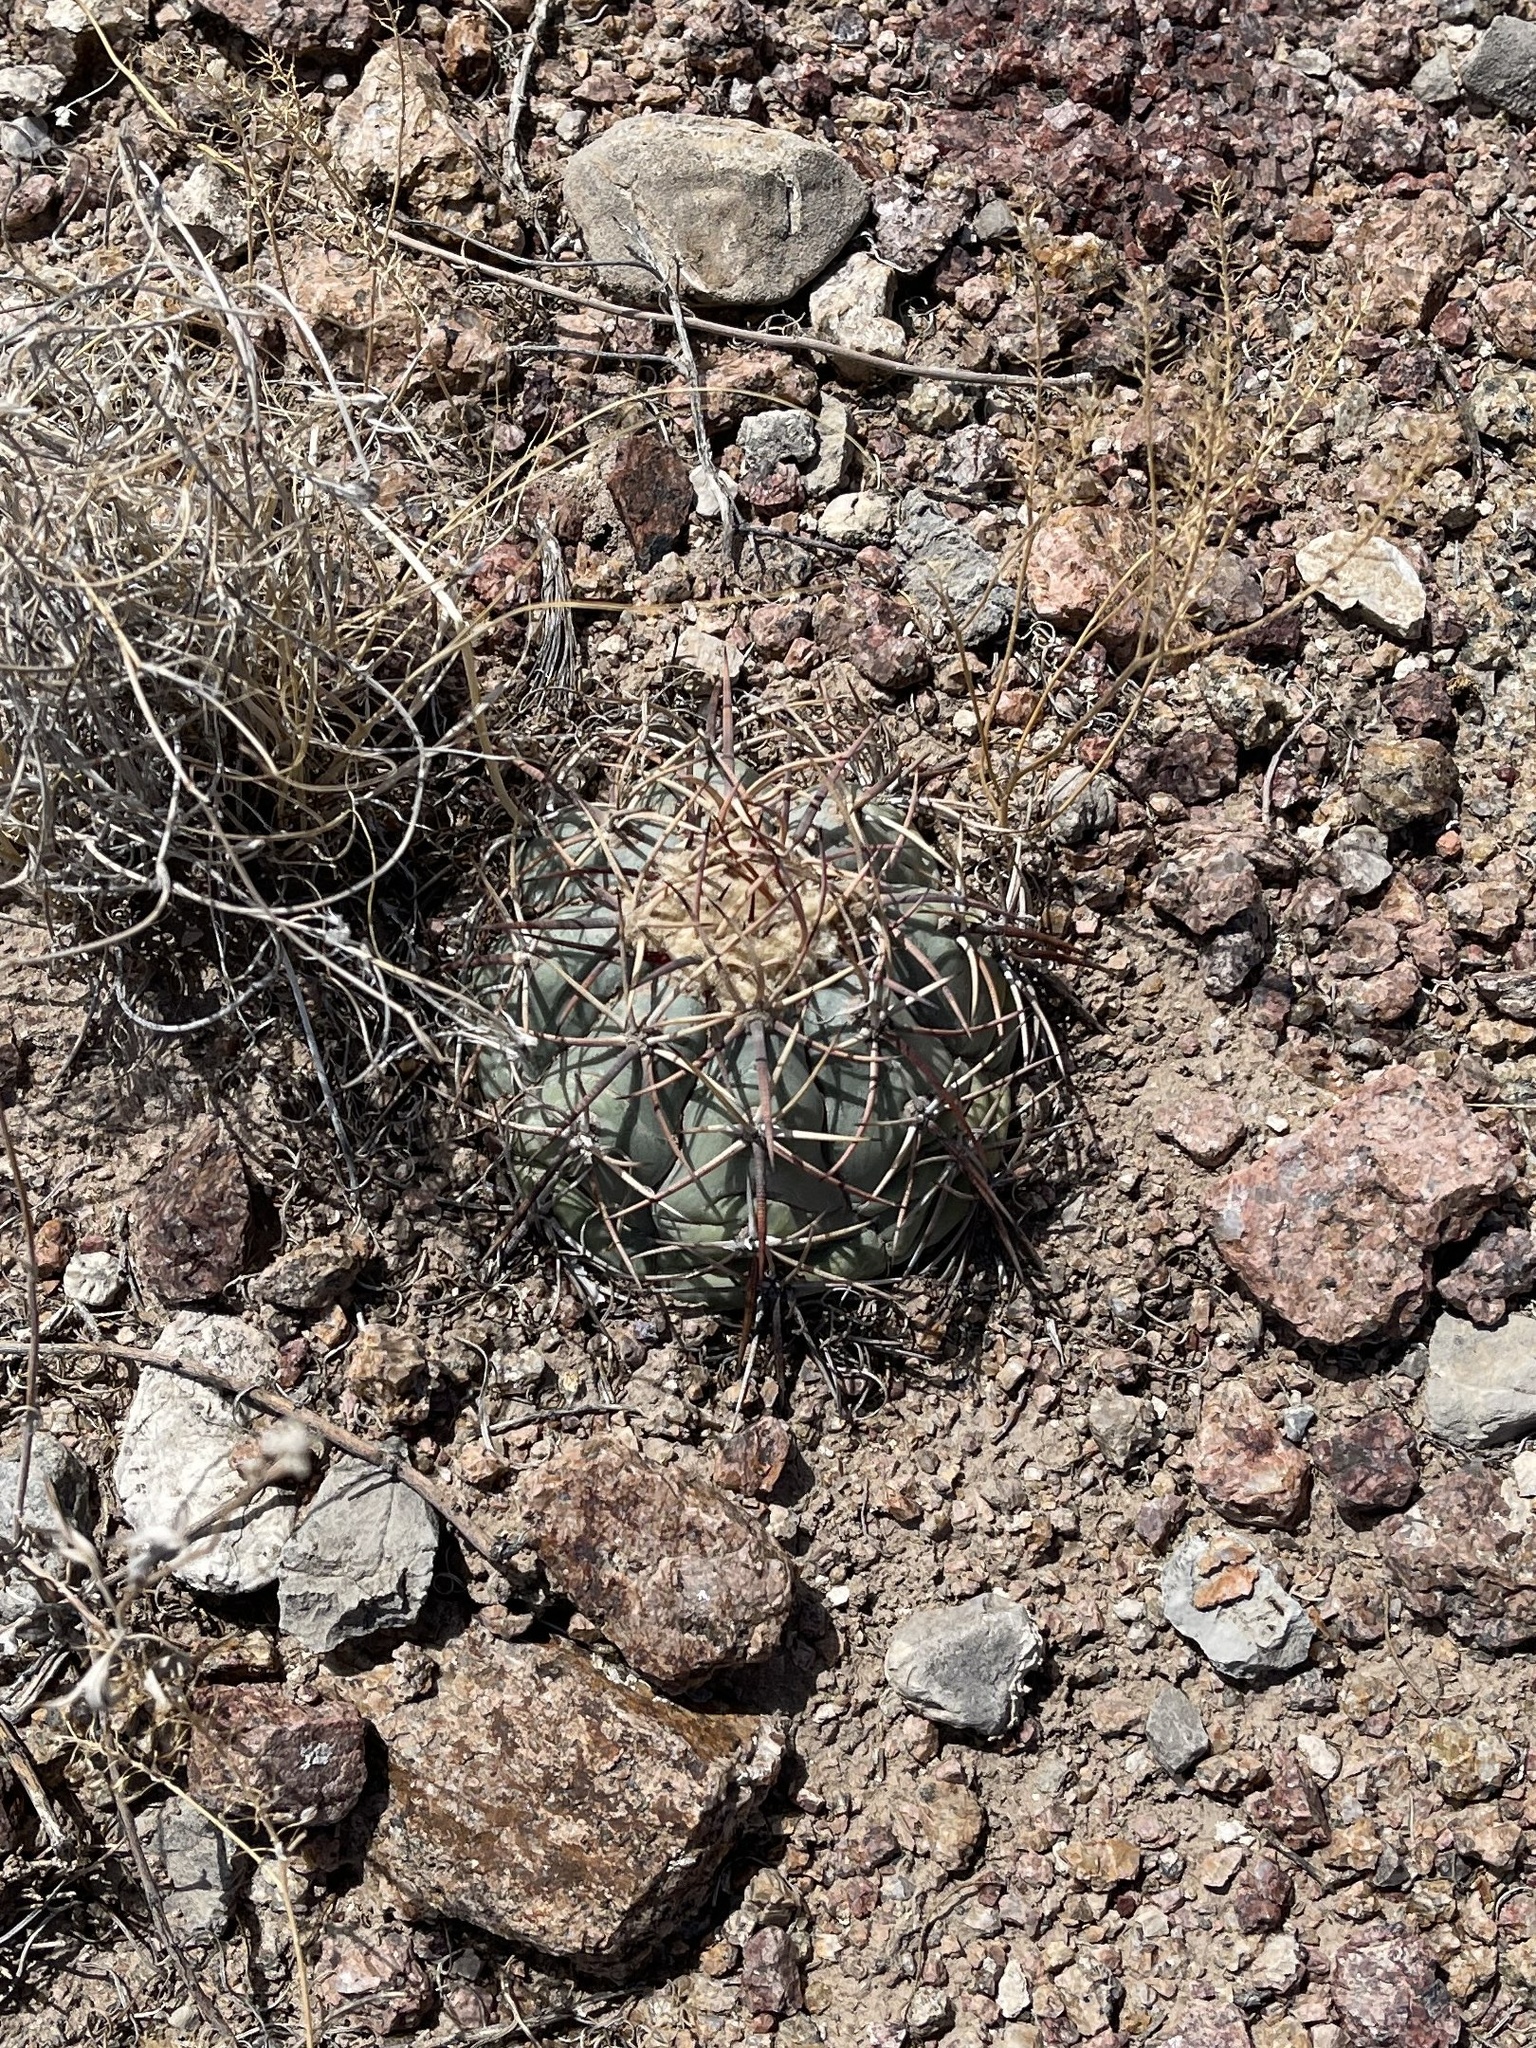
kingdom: Plantae
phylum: Tracheophyta
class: Magnoliopsida
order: Caryophyllales
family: Cactaceae
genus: Echinocactus
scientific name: Echinocactus horizonthalonius
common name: Devilshead
